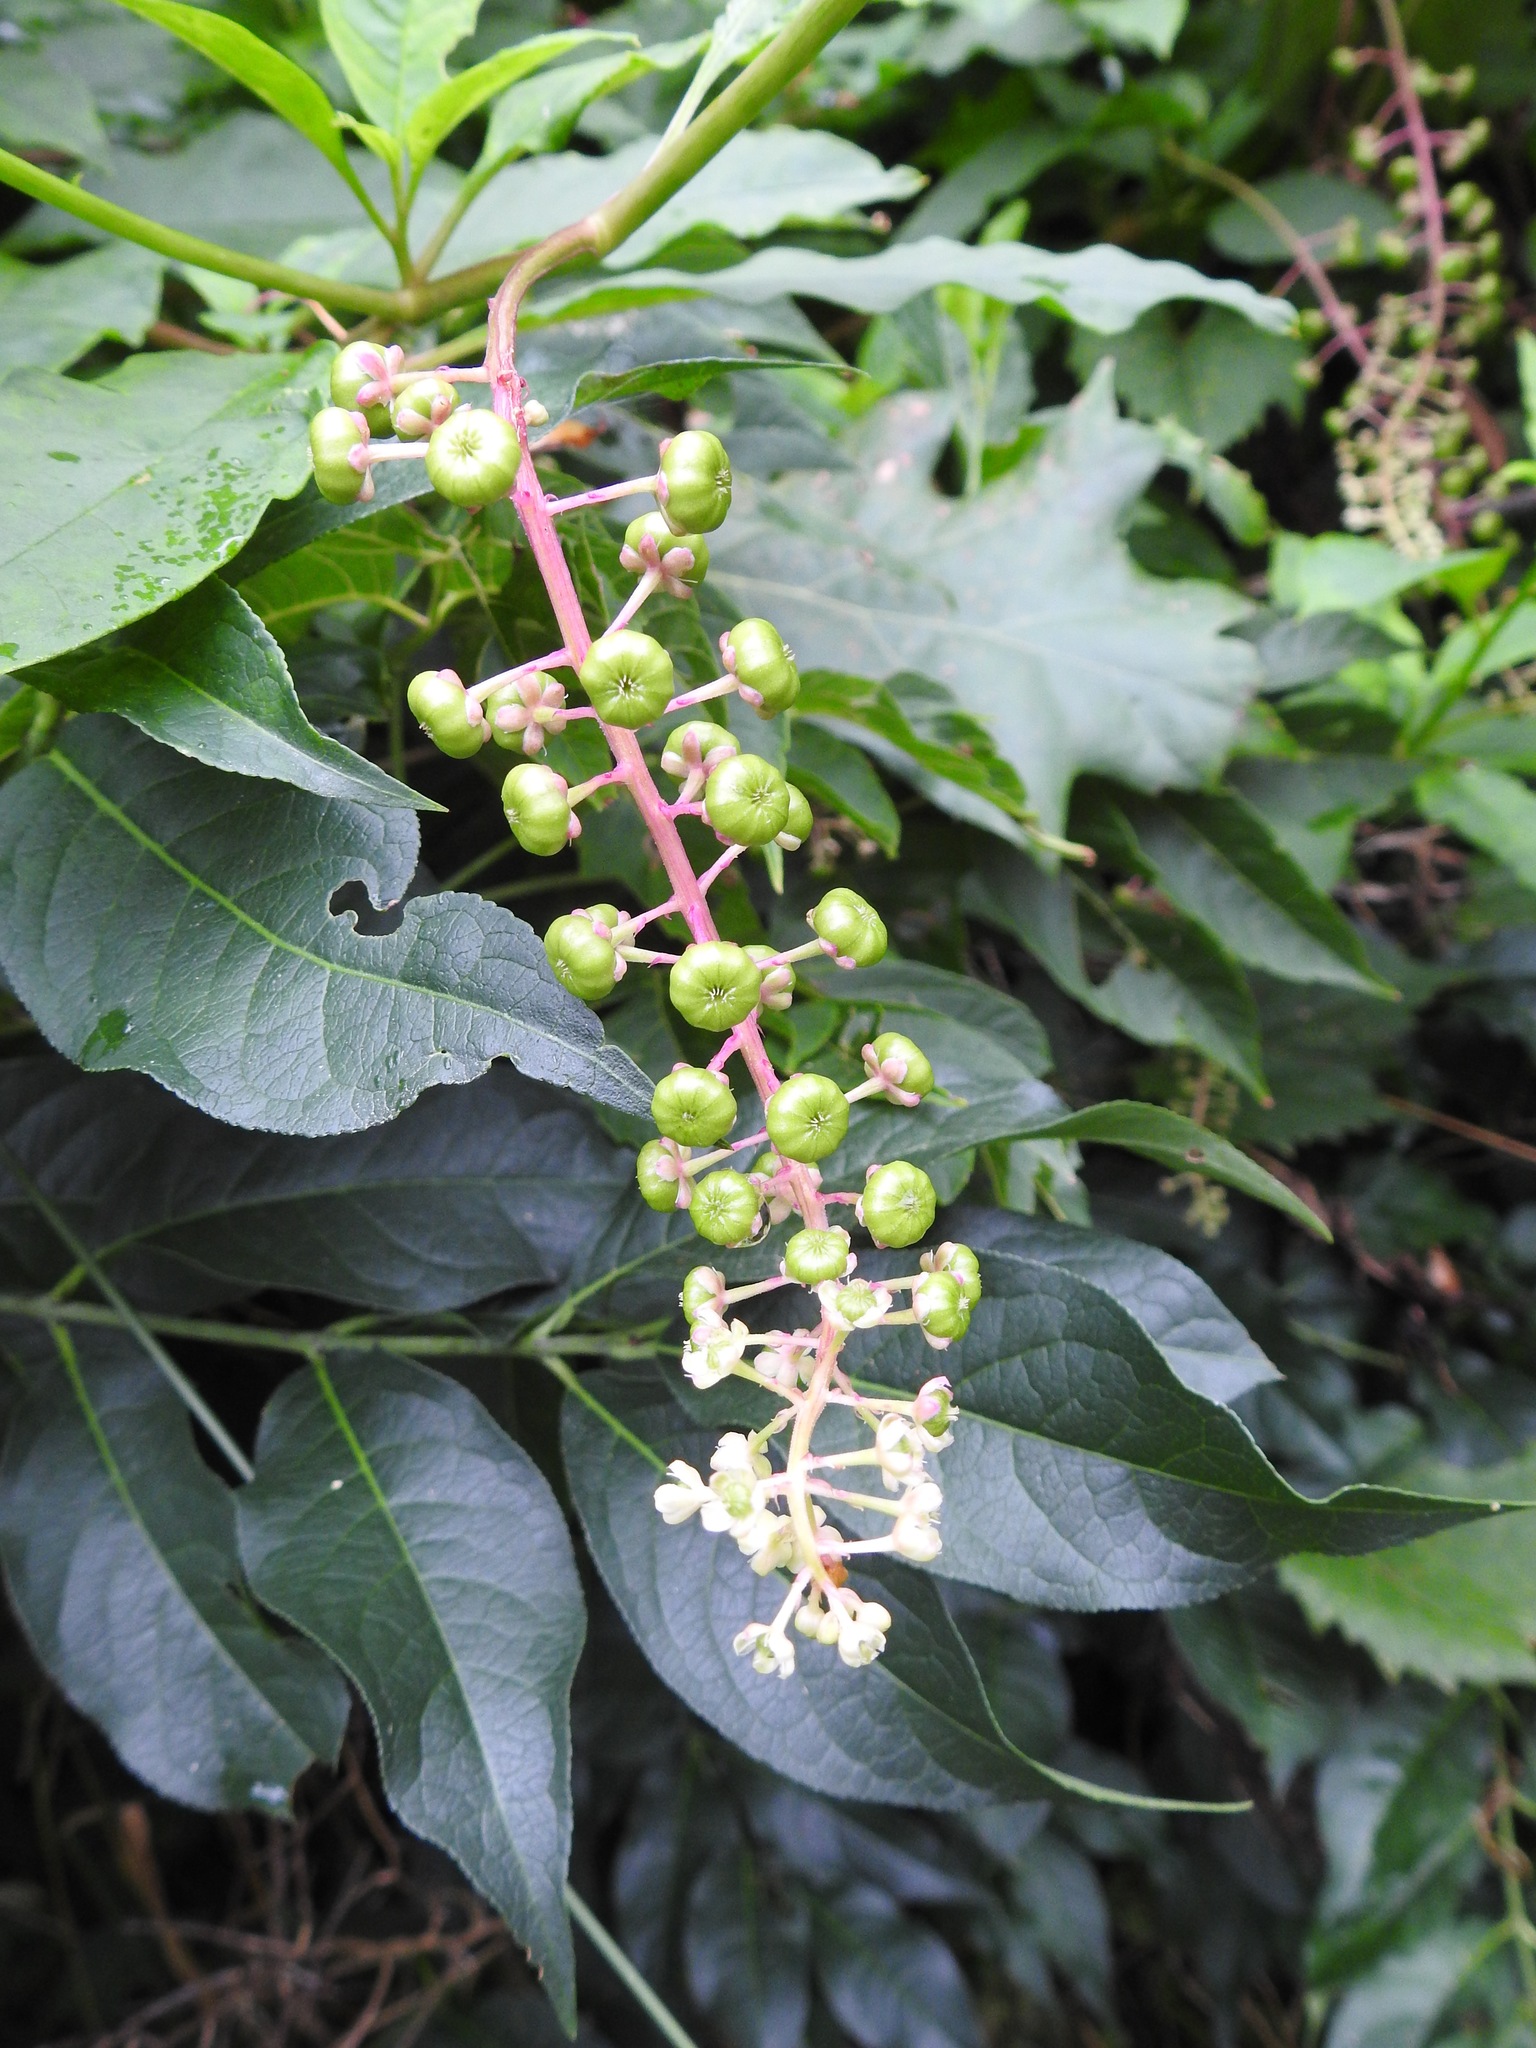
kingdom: Plantae
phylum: Tracheophyta
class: Magnoliopsida
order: Caryophyllales
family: Phytolaccaceae
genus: Phytolacca
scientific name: Phytolacca americana
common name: American pokeweed
